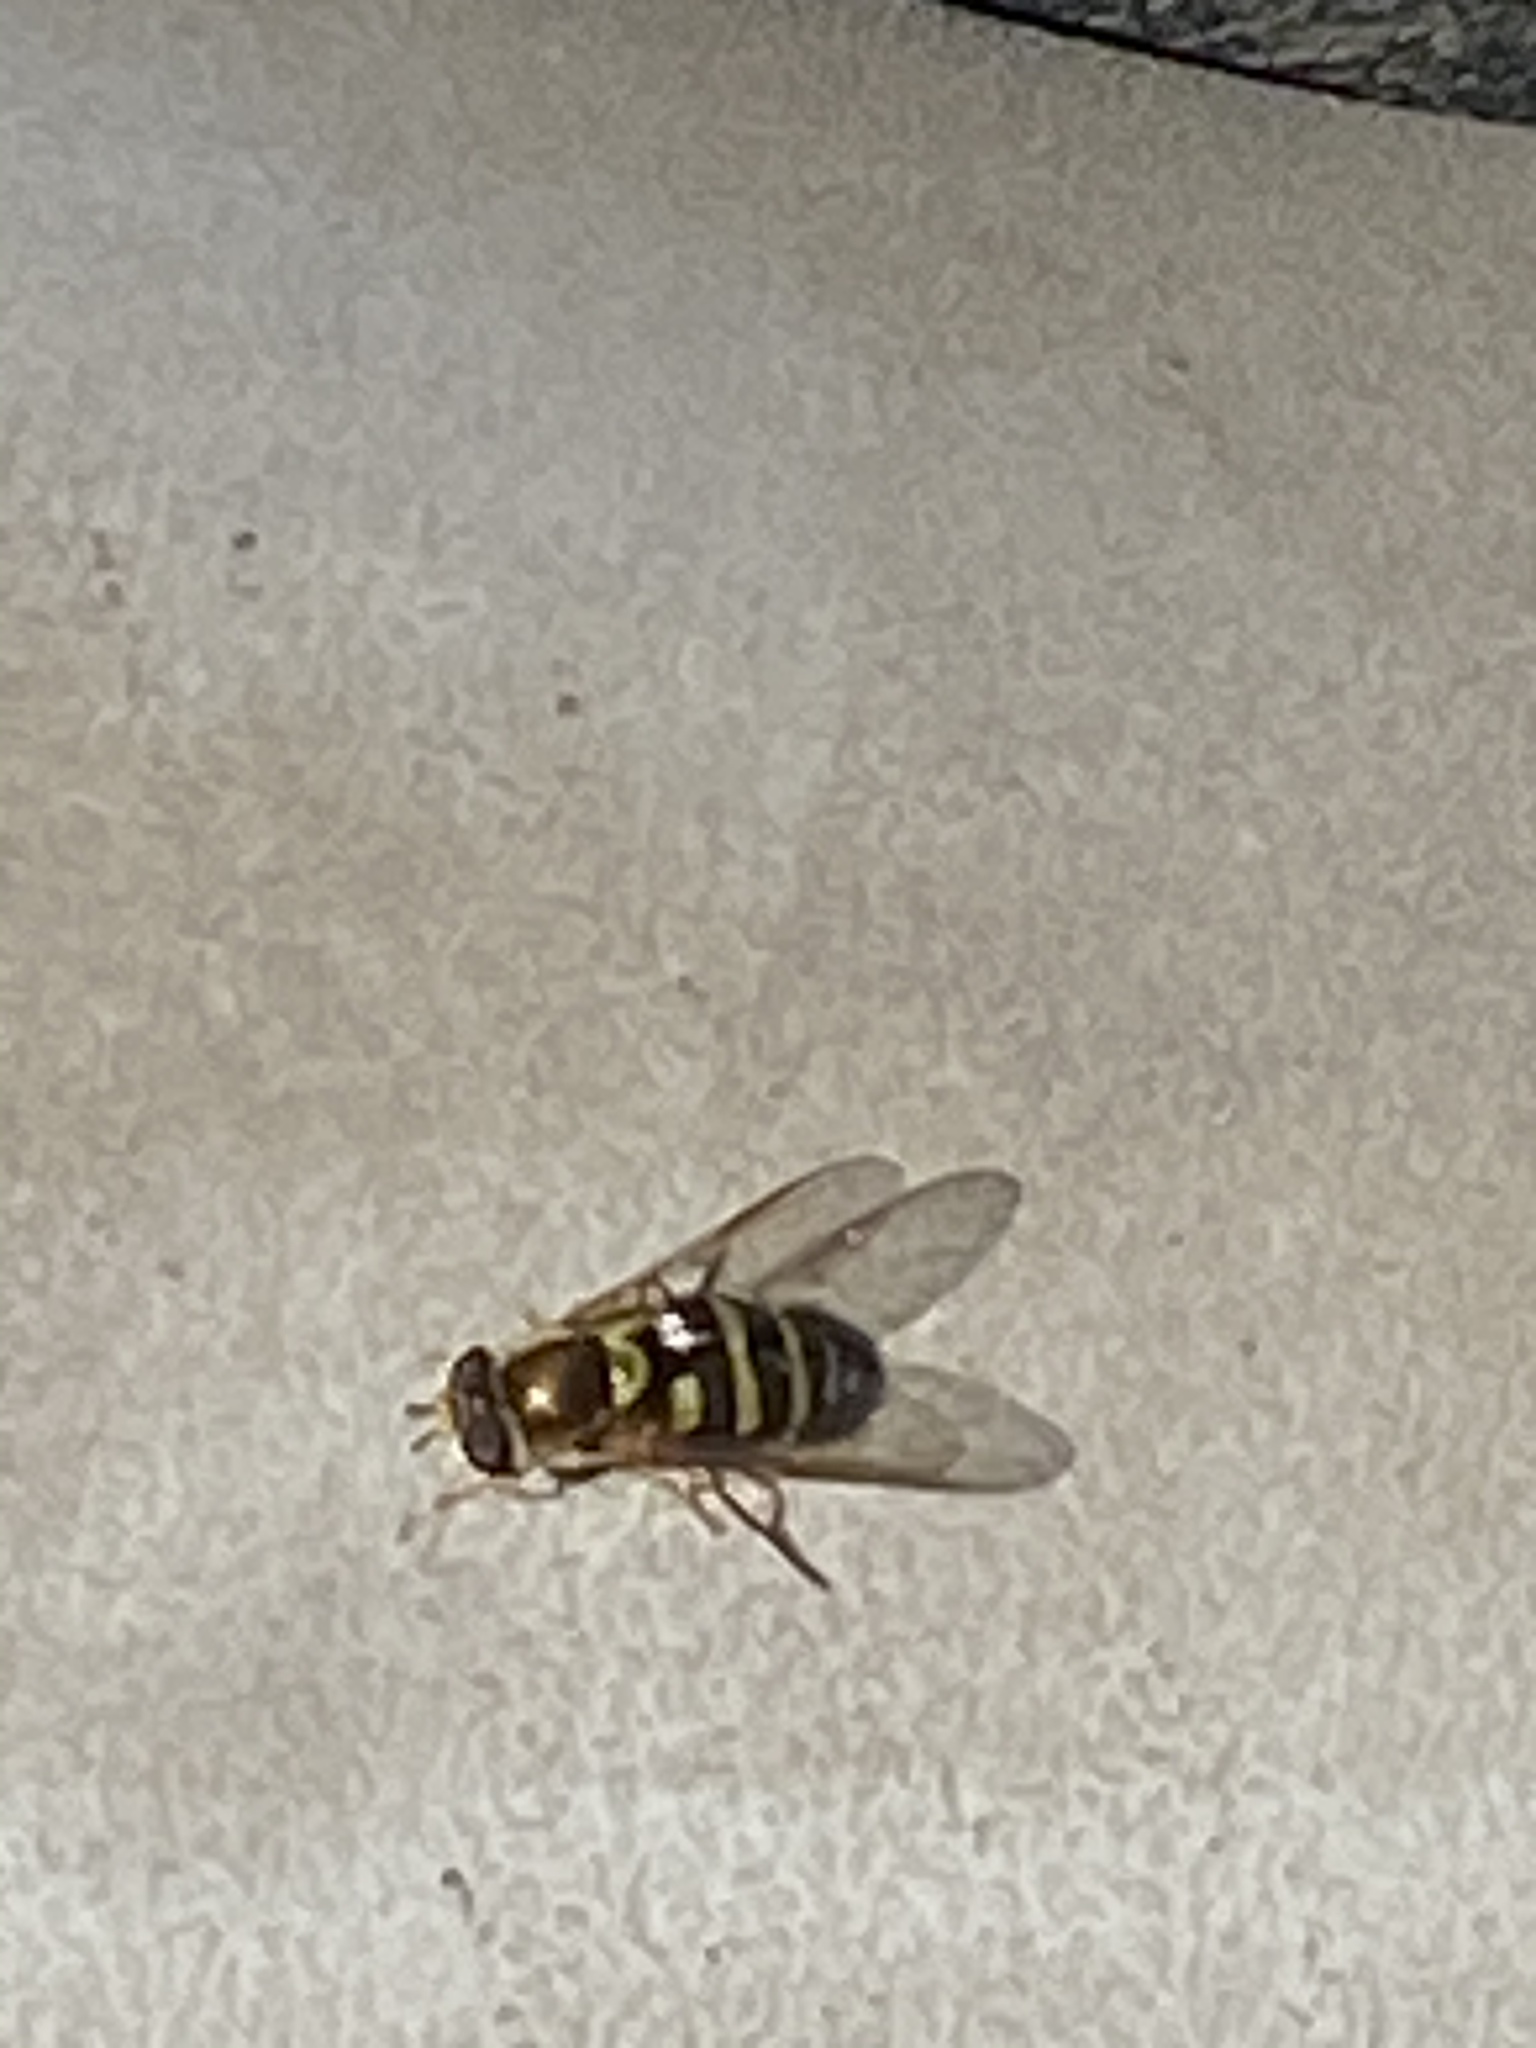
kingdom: Animalia
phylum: Arthropoda
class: Insecta
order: Diptera
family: Syrphidae
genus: Syrphus
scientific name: Syrphus opinator
